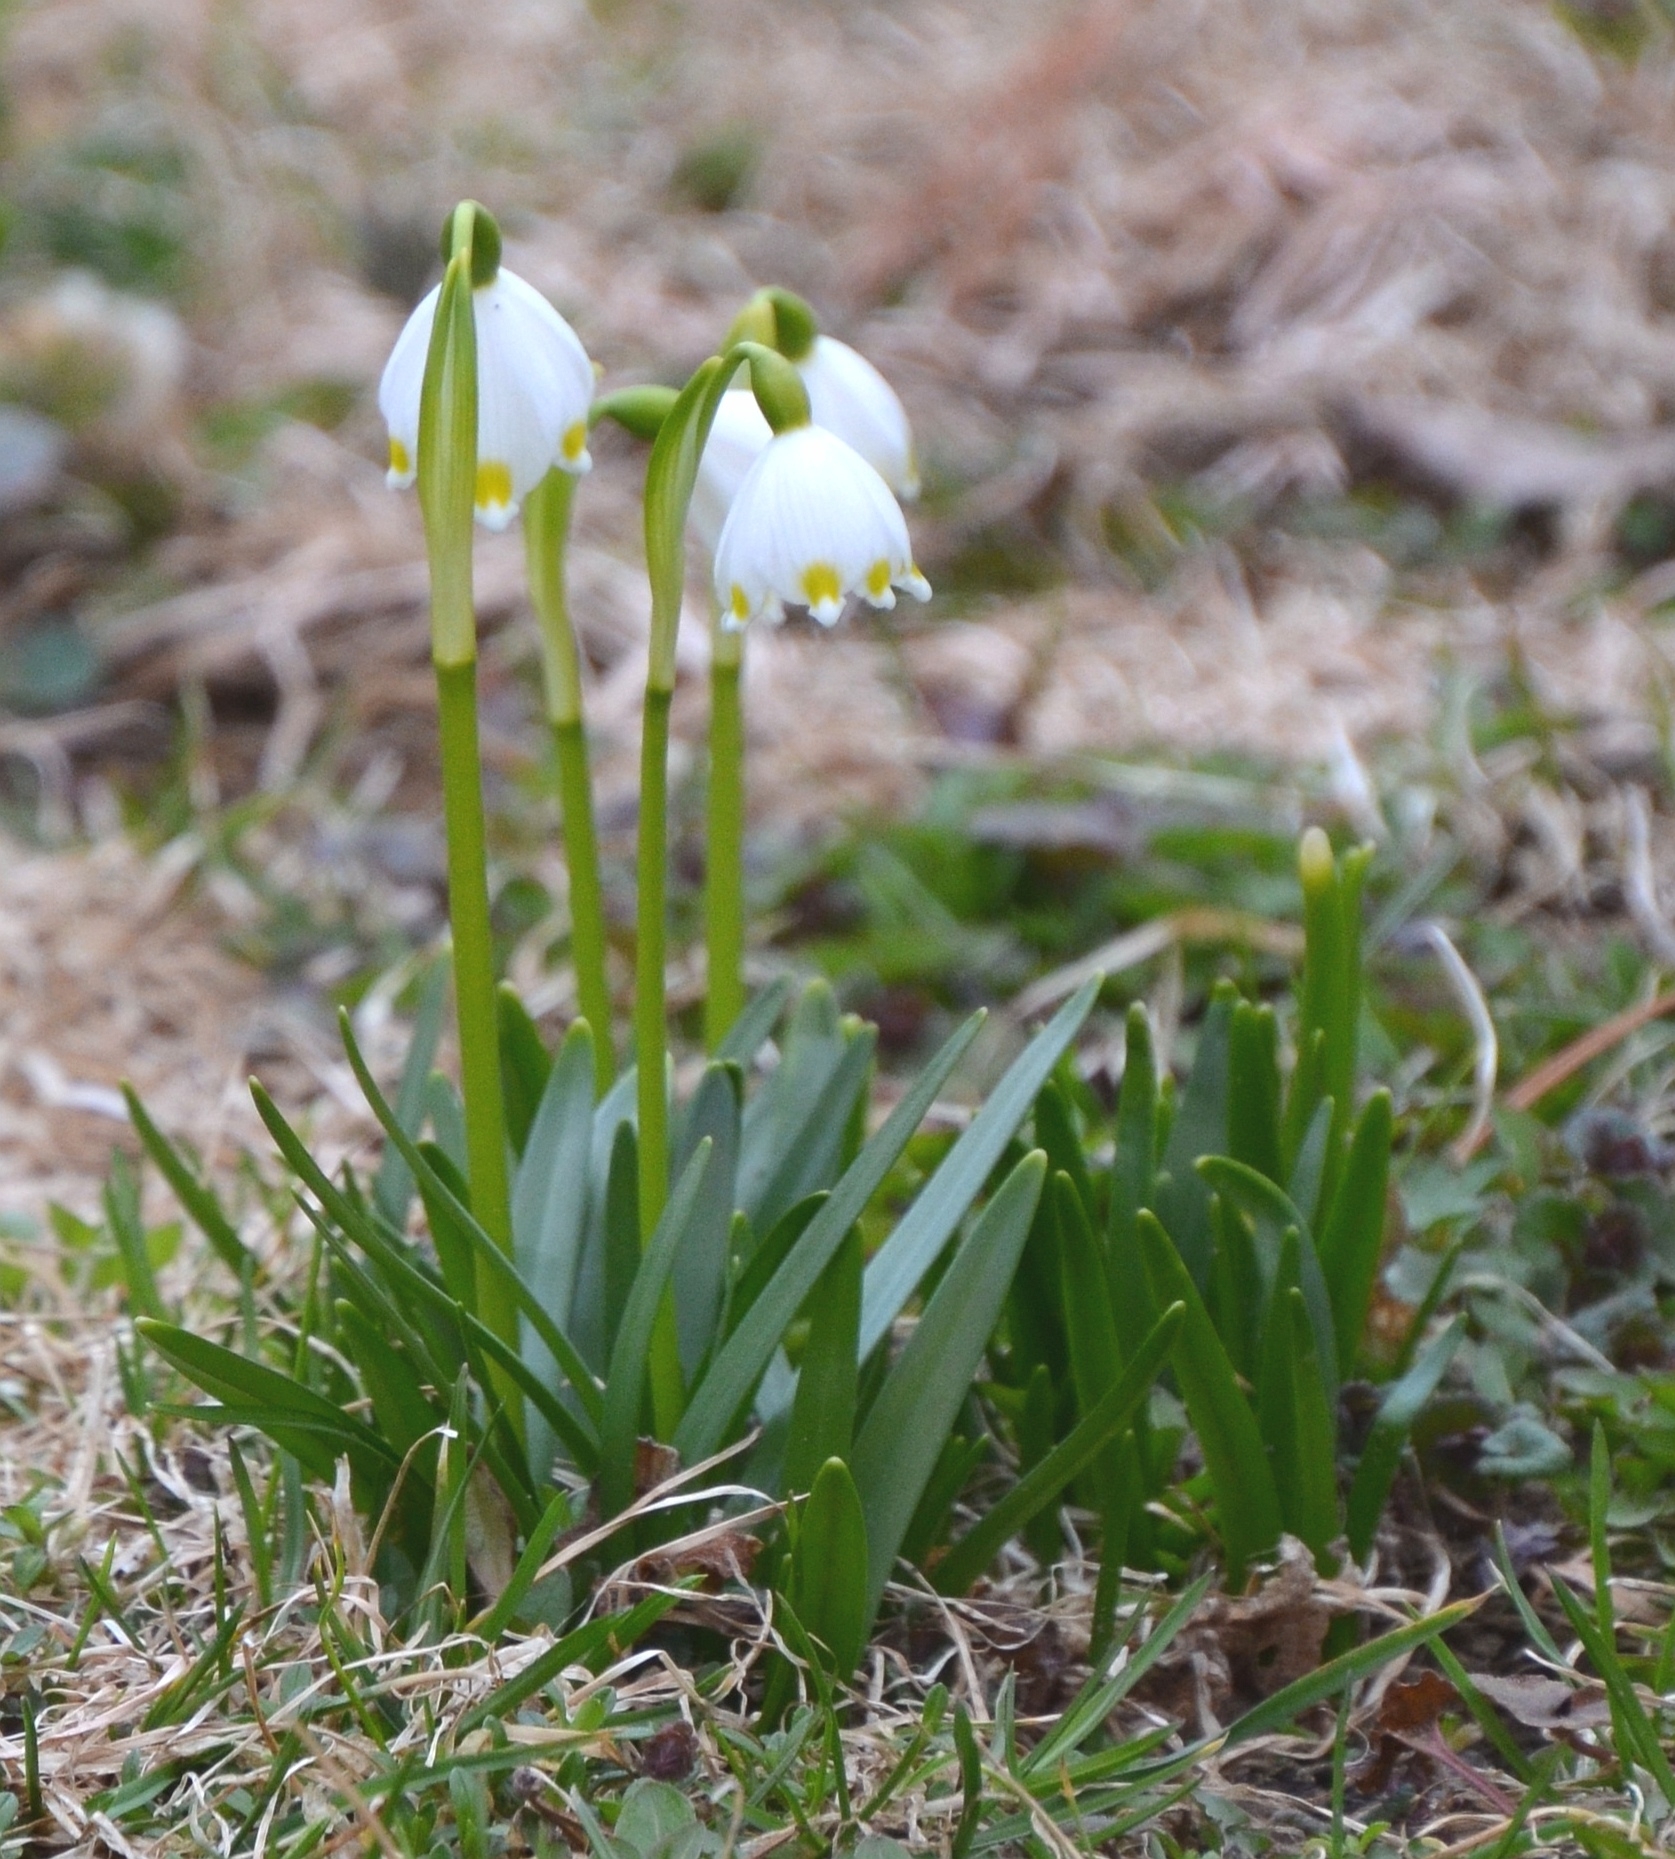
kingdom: Plantae
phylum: Tracheophyta
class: Liliopsida
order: Asparagales
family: Amaryllidaceae
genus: Leucojum
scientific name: Leucojum vernum
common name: Spring snowflake
